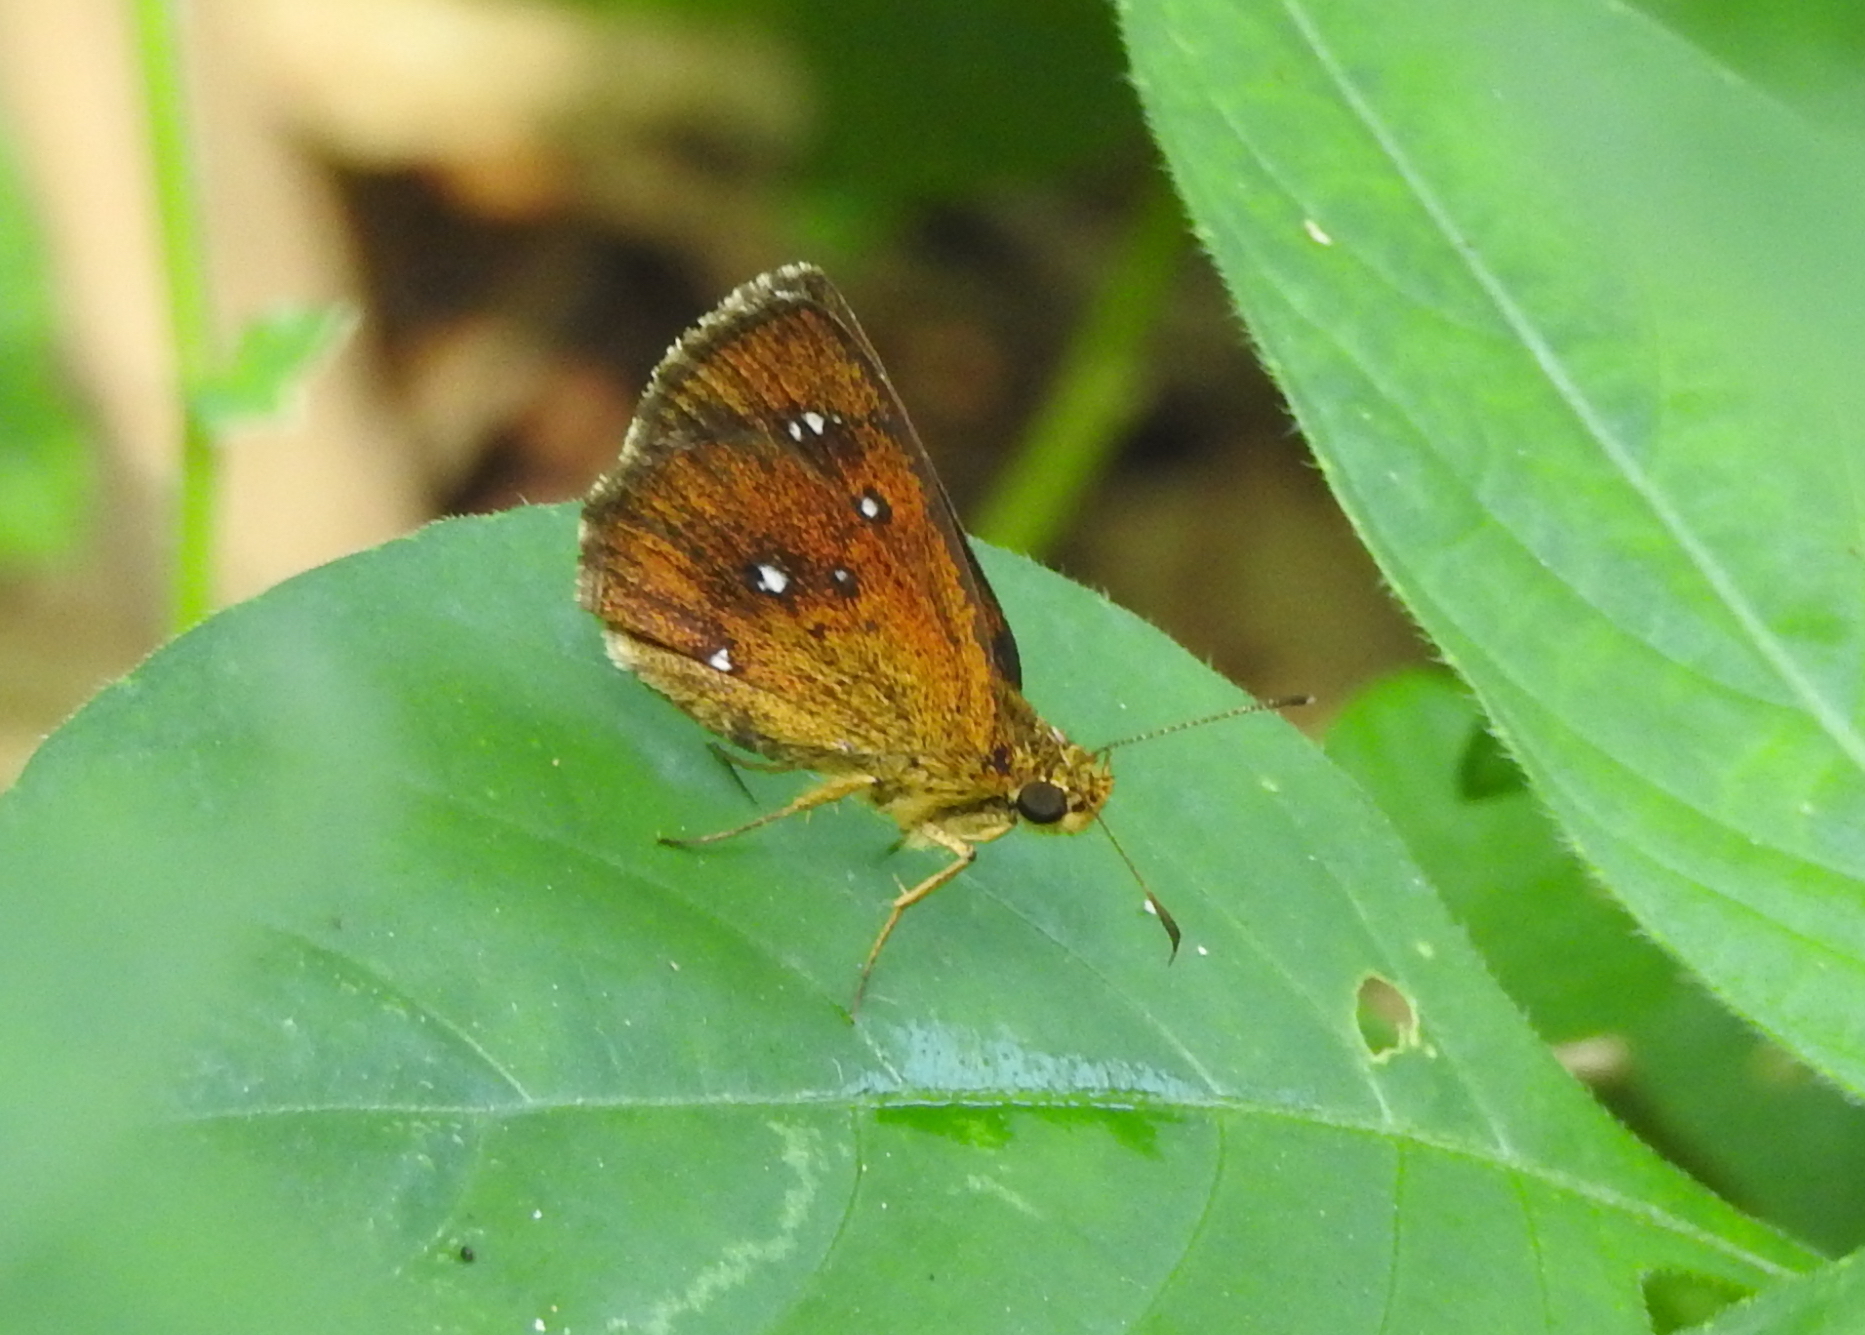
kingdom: Animalia
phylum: Arthropoda
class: Insecta
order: Lepidoptera
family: Hesperiidae
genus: Iambrix
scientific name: Iambrix salsala
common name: Chestnut bob
